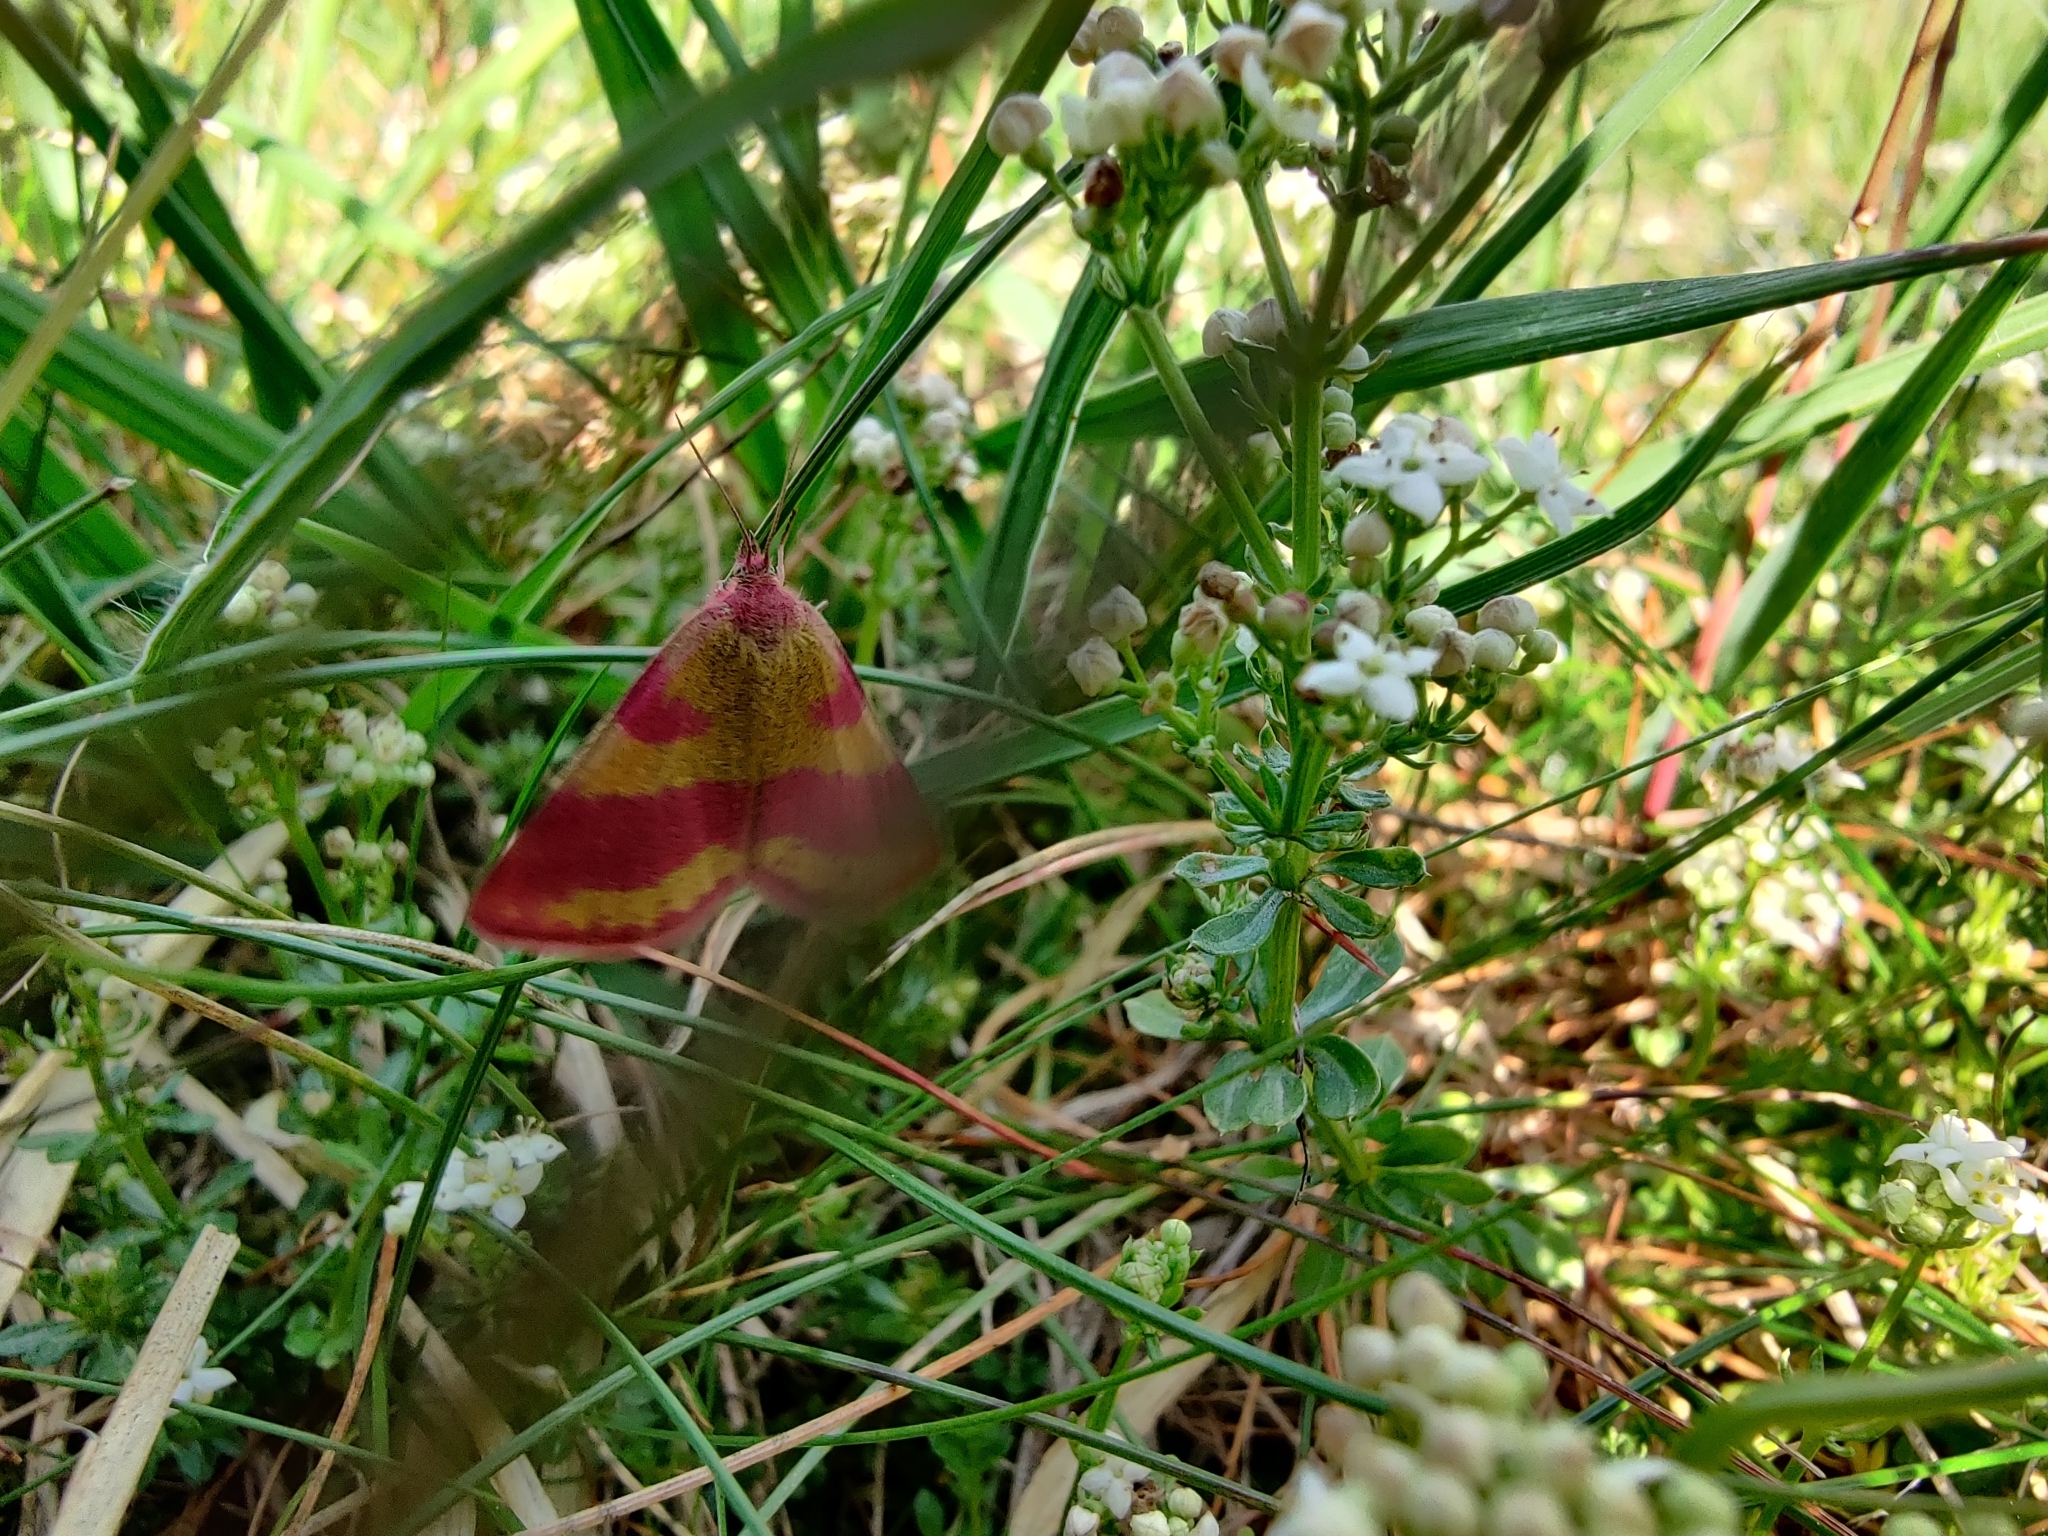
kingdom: Animalia
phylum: Arthropoda
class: Insecta
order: Lepidoptera
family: Geometridae
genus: Lythria
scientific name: Lythria cruentaria
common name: Purple-barred yellow
